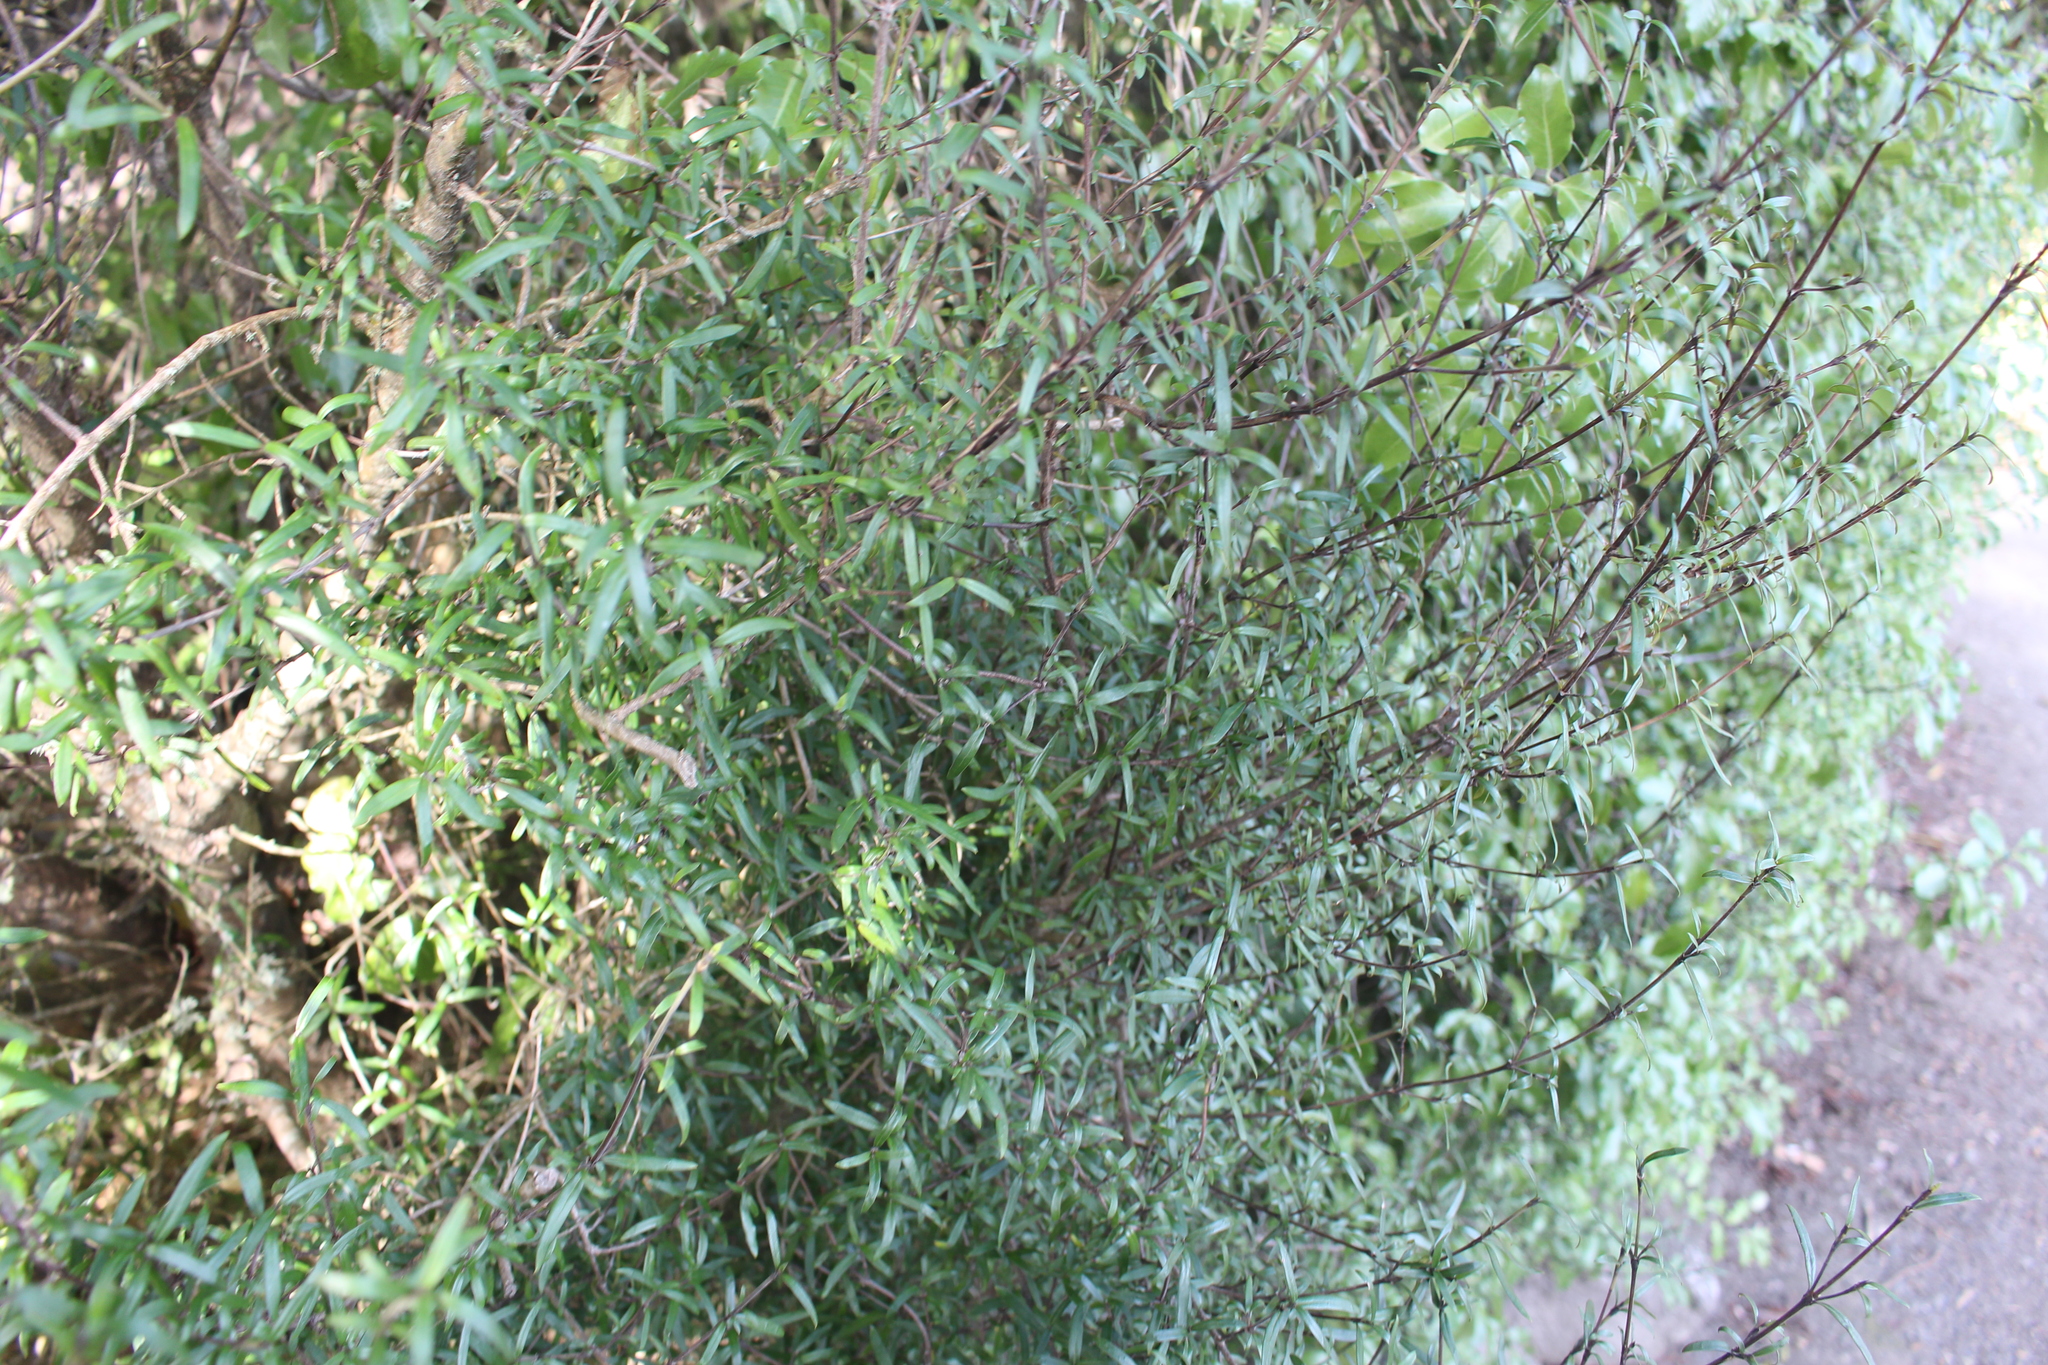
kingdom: Plantae
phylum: Tracheophyta
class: Magnoliopsida
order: Gentianales
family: Rubiaceae
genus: Coprosma
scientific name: Coprosma linariifolia
